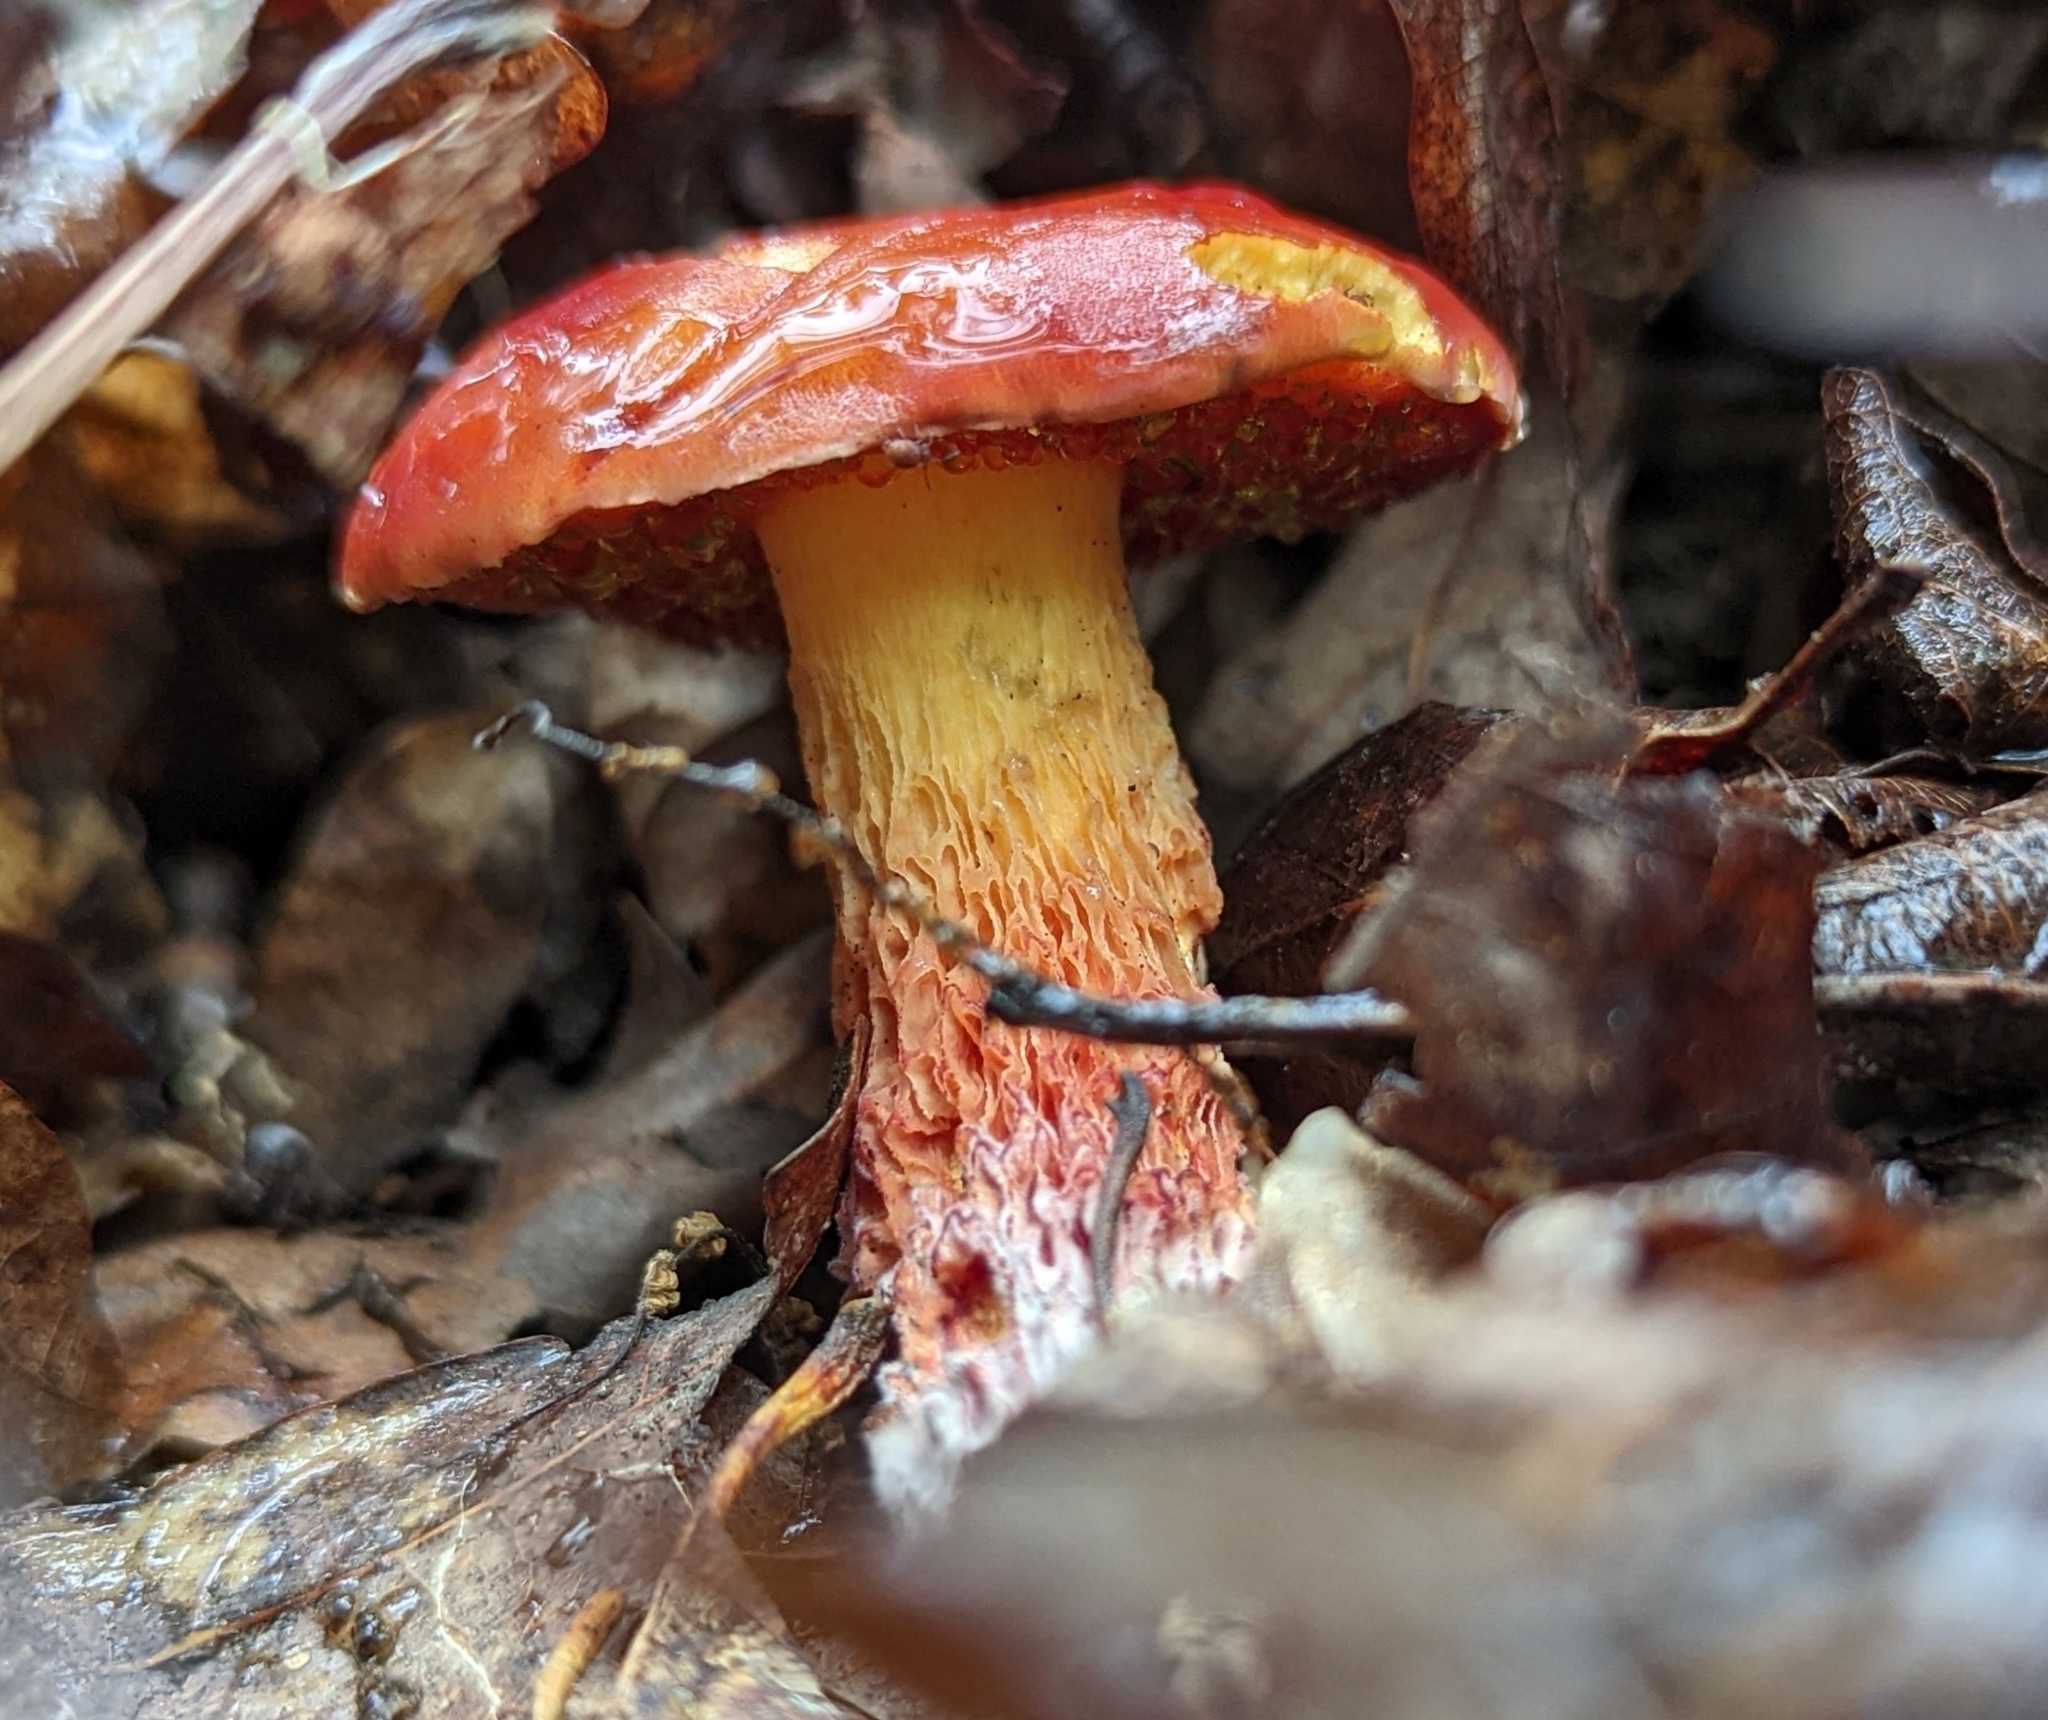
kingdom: Fungi
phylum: Basidiomycota
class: Agaricomycetes
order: Boletales
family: Boletaceae
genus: Butyriboletus
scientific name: Butyriboletus frostii
